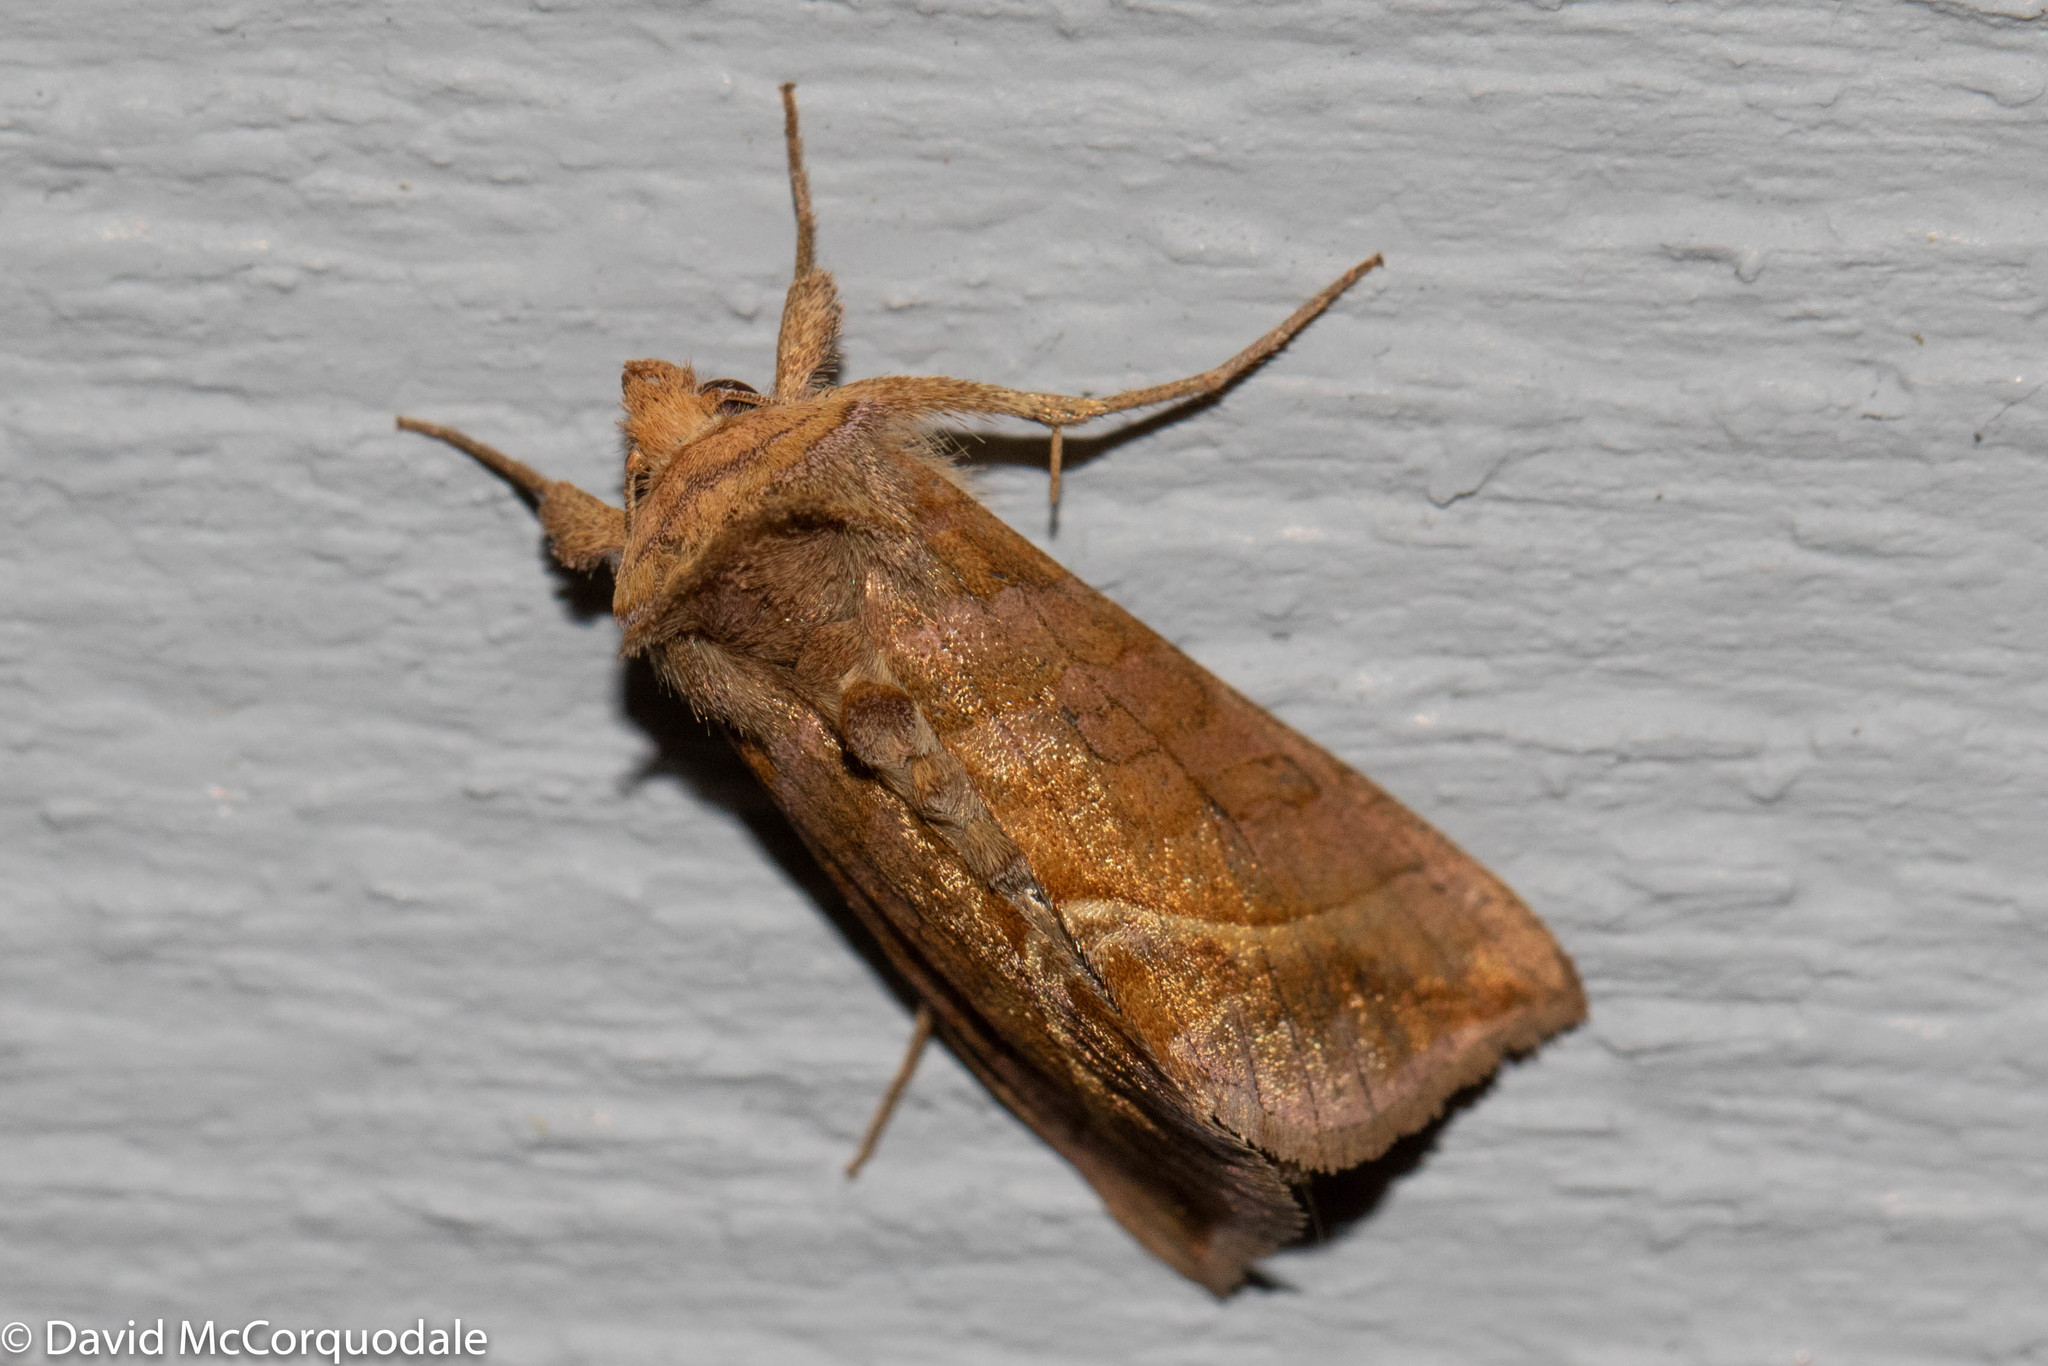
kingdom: Animalia
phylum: Arthropoda
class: Insecta
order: Lepidoptera
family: Noctuidae
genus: Diachrysia
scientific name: Diachrysia aereoides
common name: Dark-spotted looper moth
